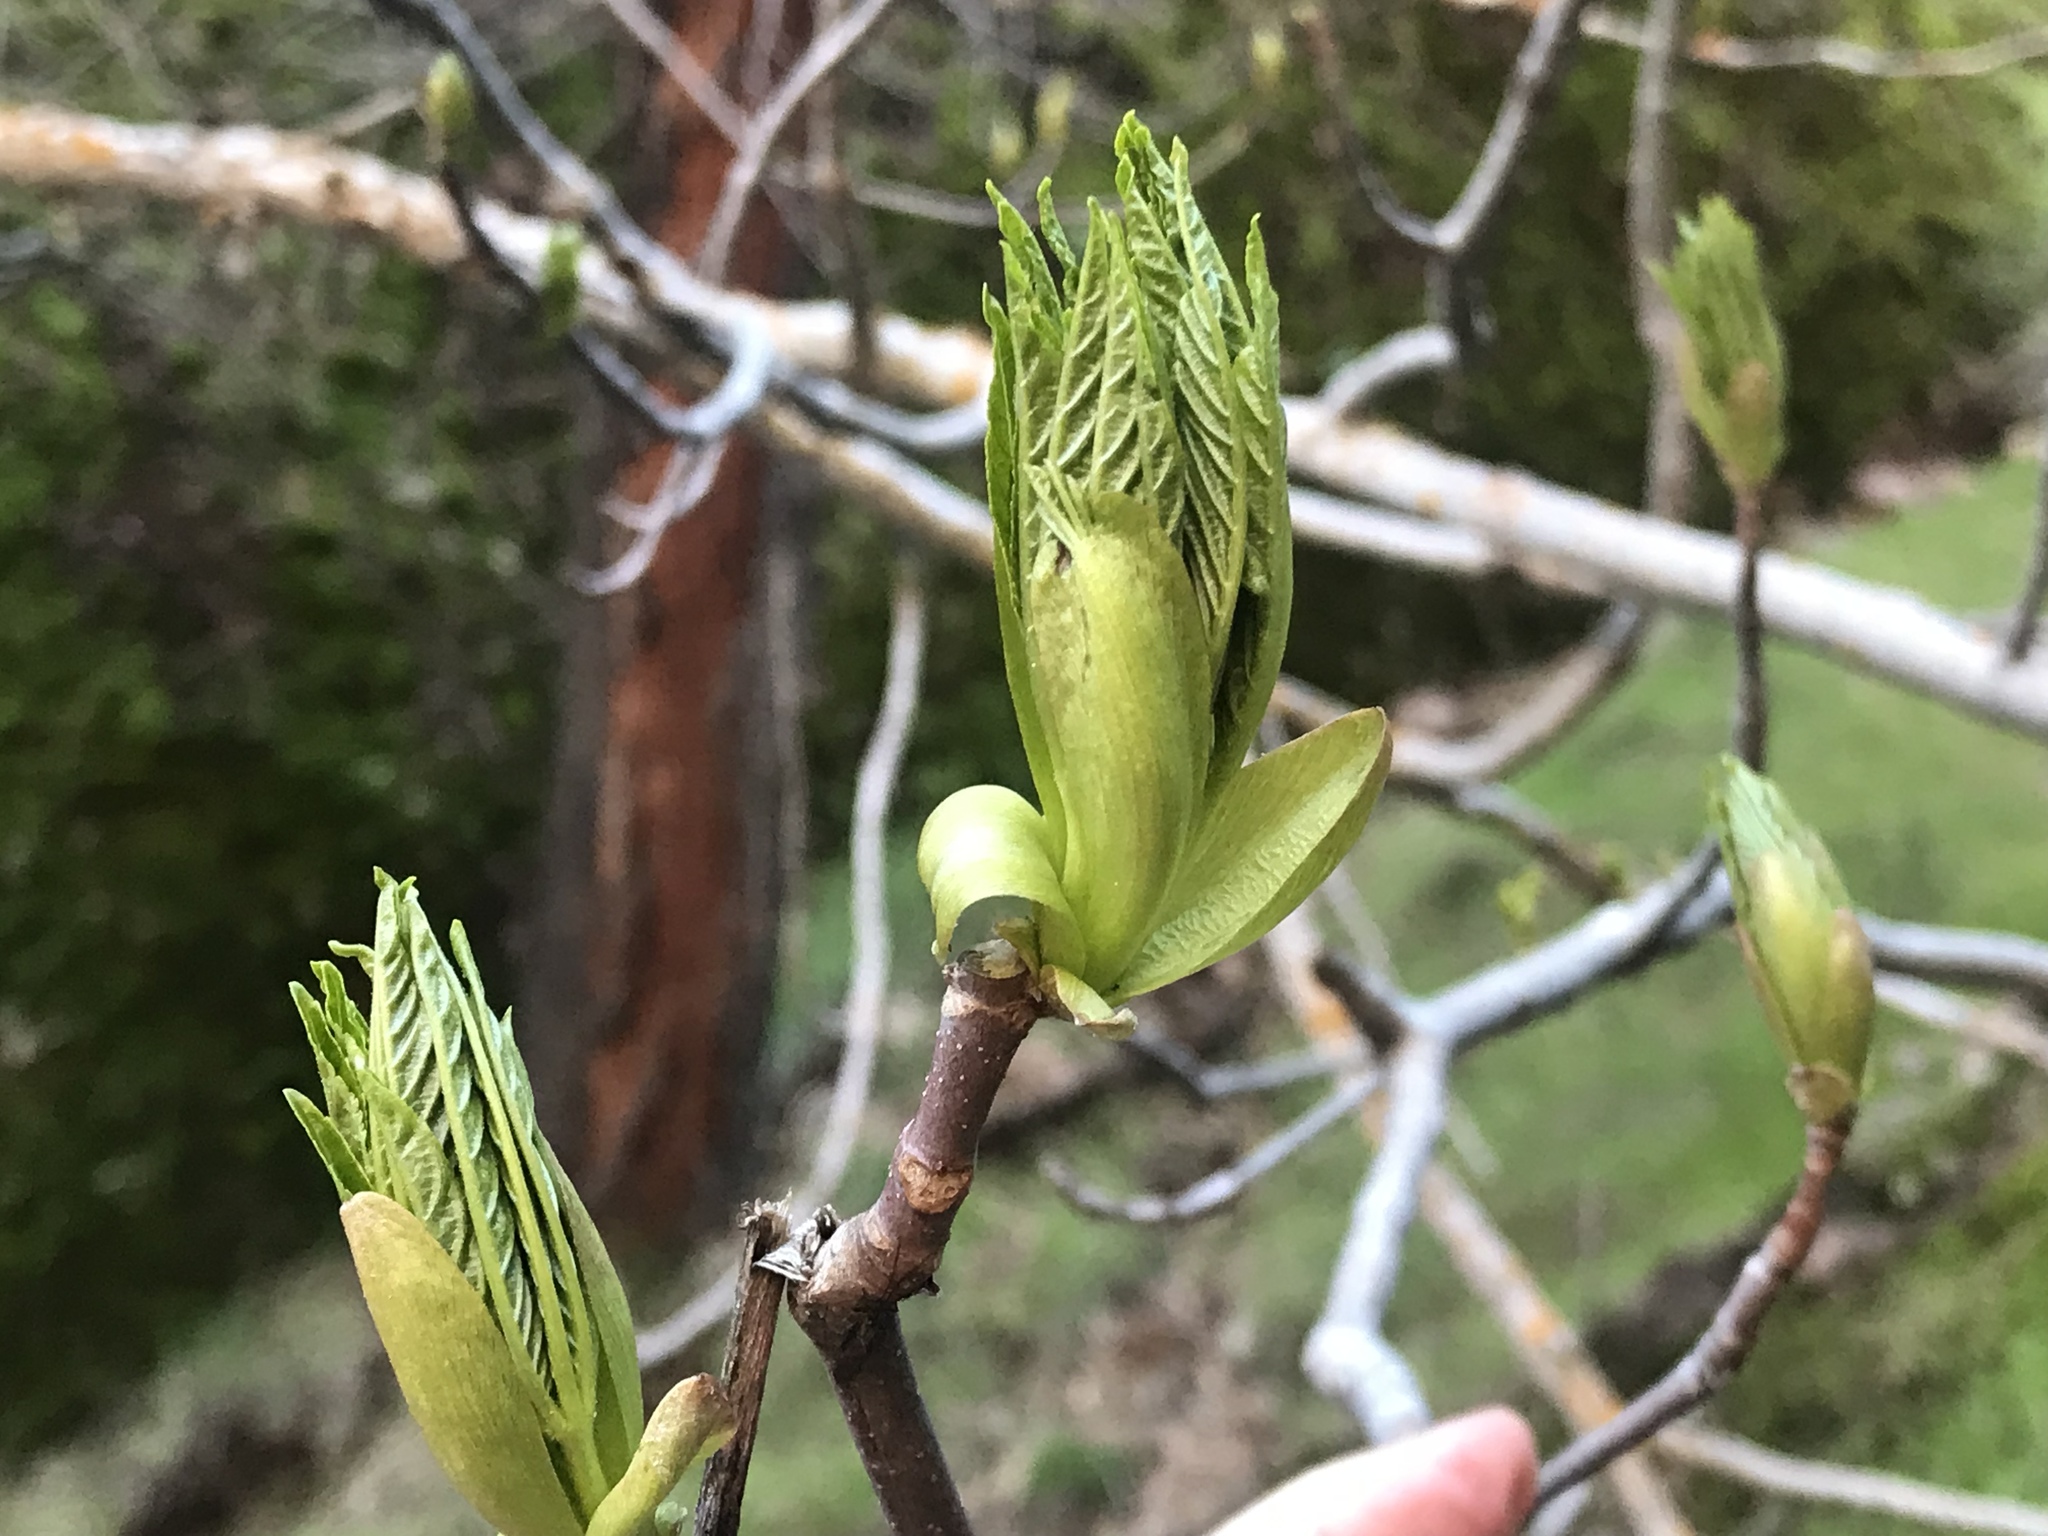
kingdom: Plantae
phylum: Tracheophyta
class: Magnoliopsida
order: Sapindales
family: Sapindaceae
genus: Aesculus
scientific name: Aesculus californica
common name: California buckeye
